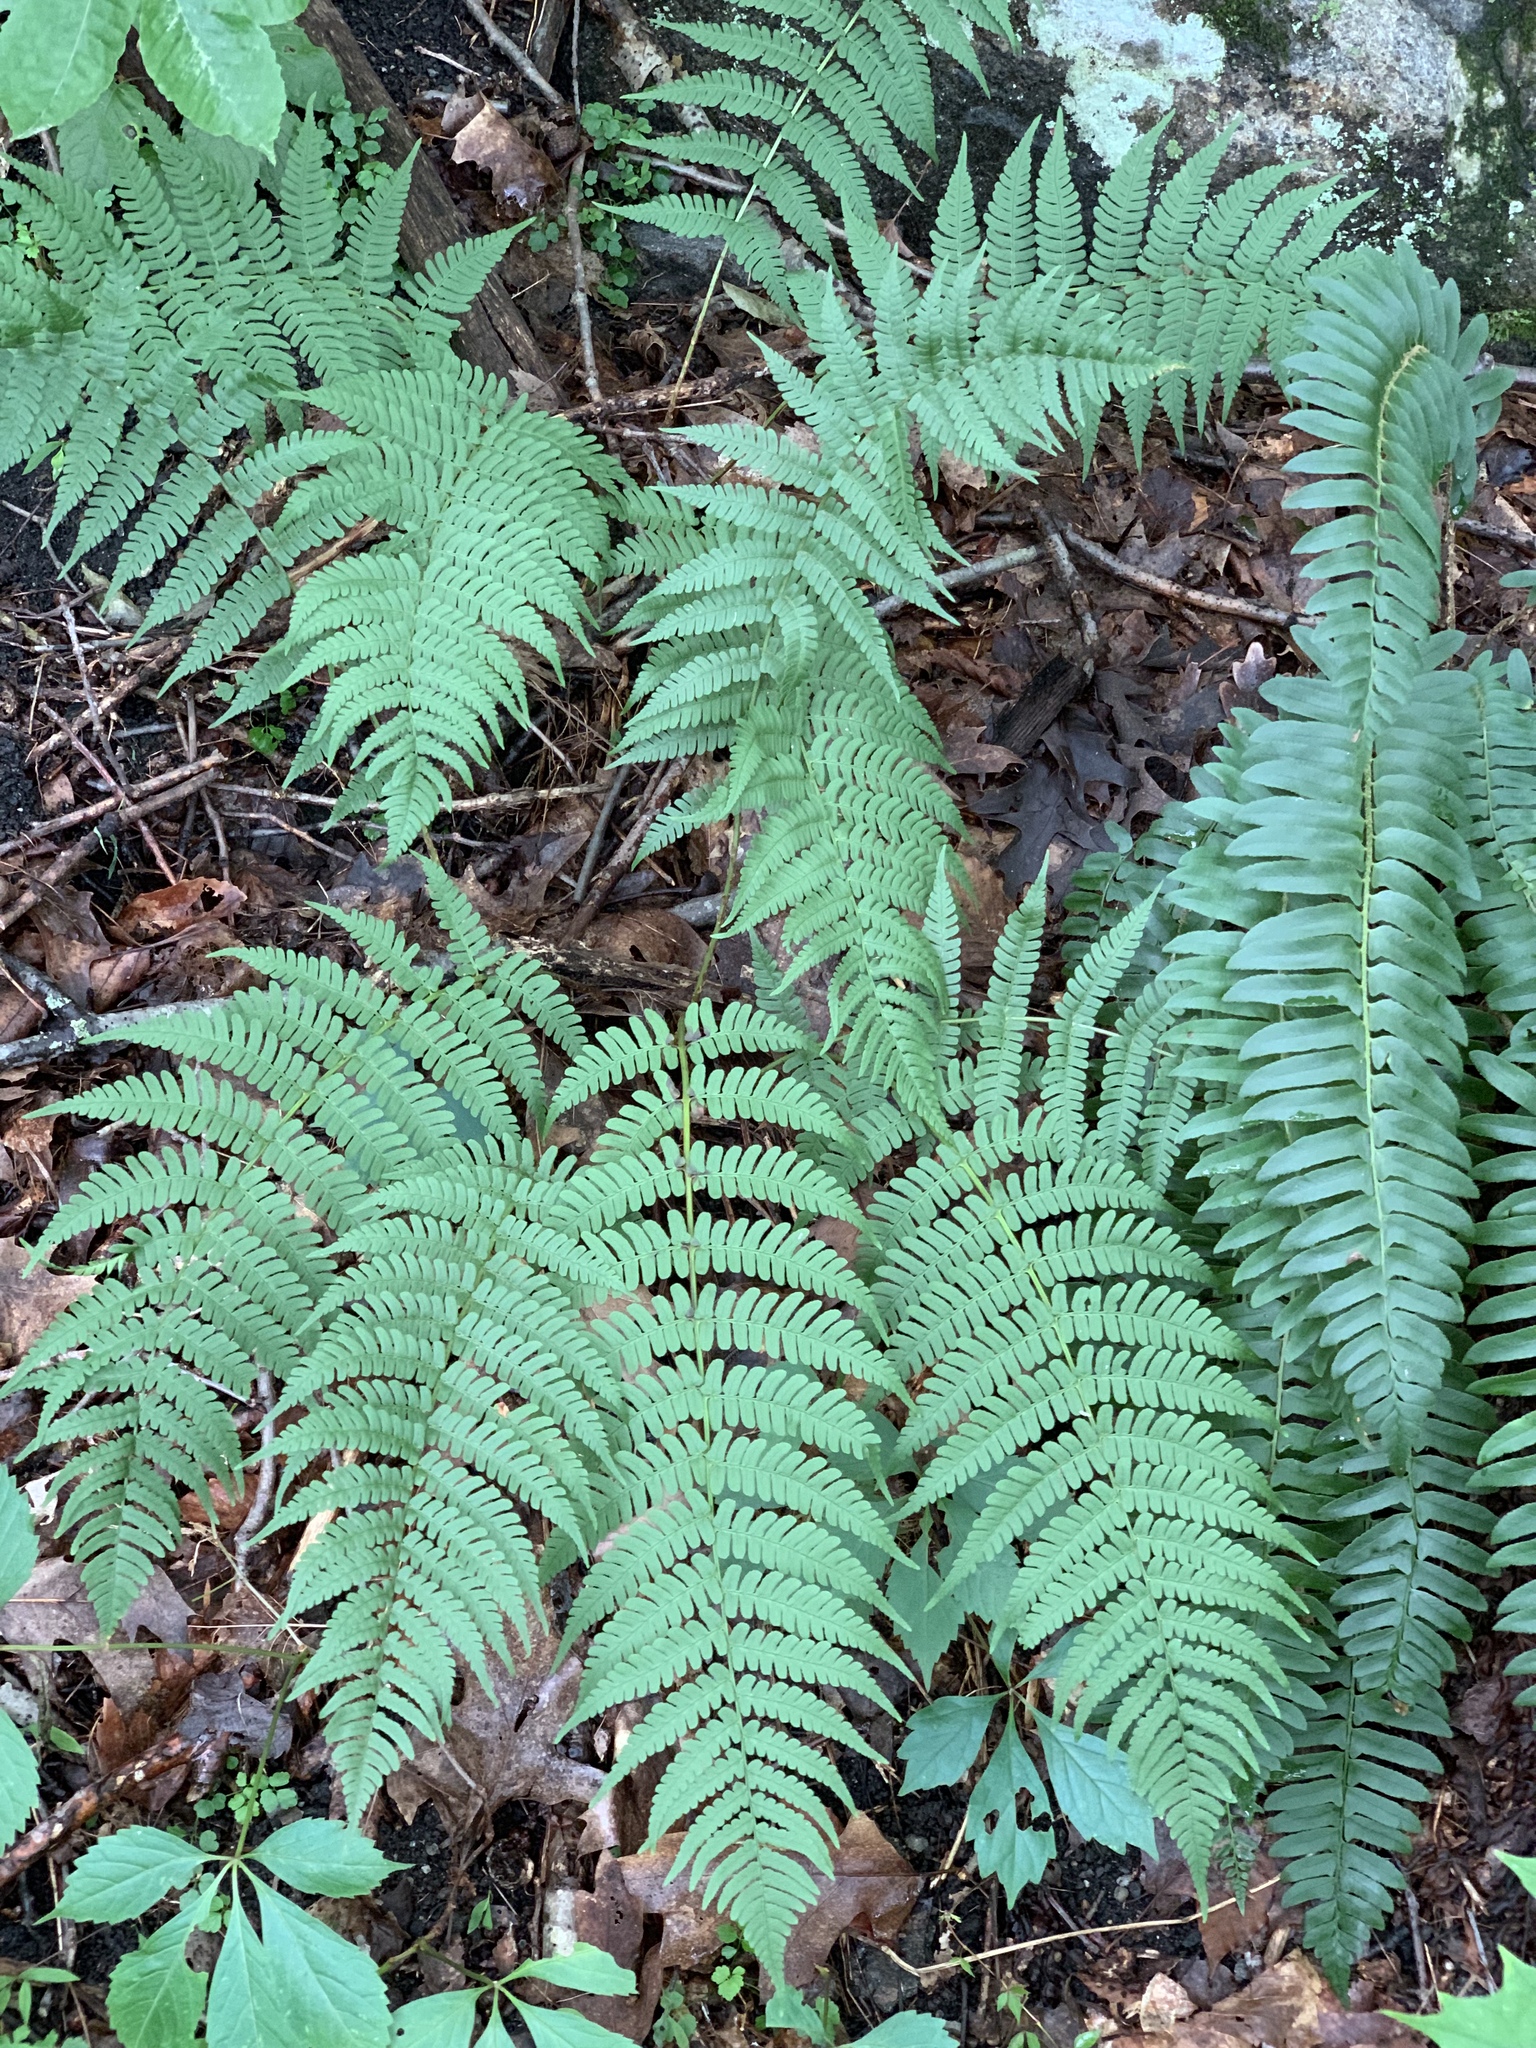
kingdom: Plantae
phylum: Tracheophyta
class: Polypodiopsida
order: Polypodiales
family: Dryopteridaceae
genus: Dryopteris
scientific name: Dryopteris marginalis
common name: Marginal wood fern
